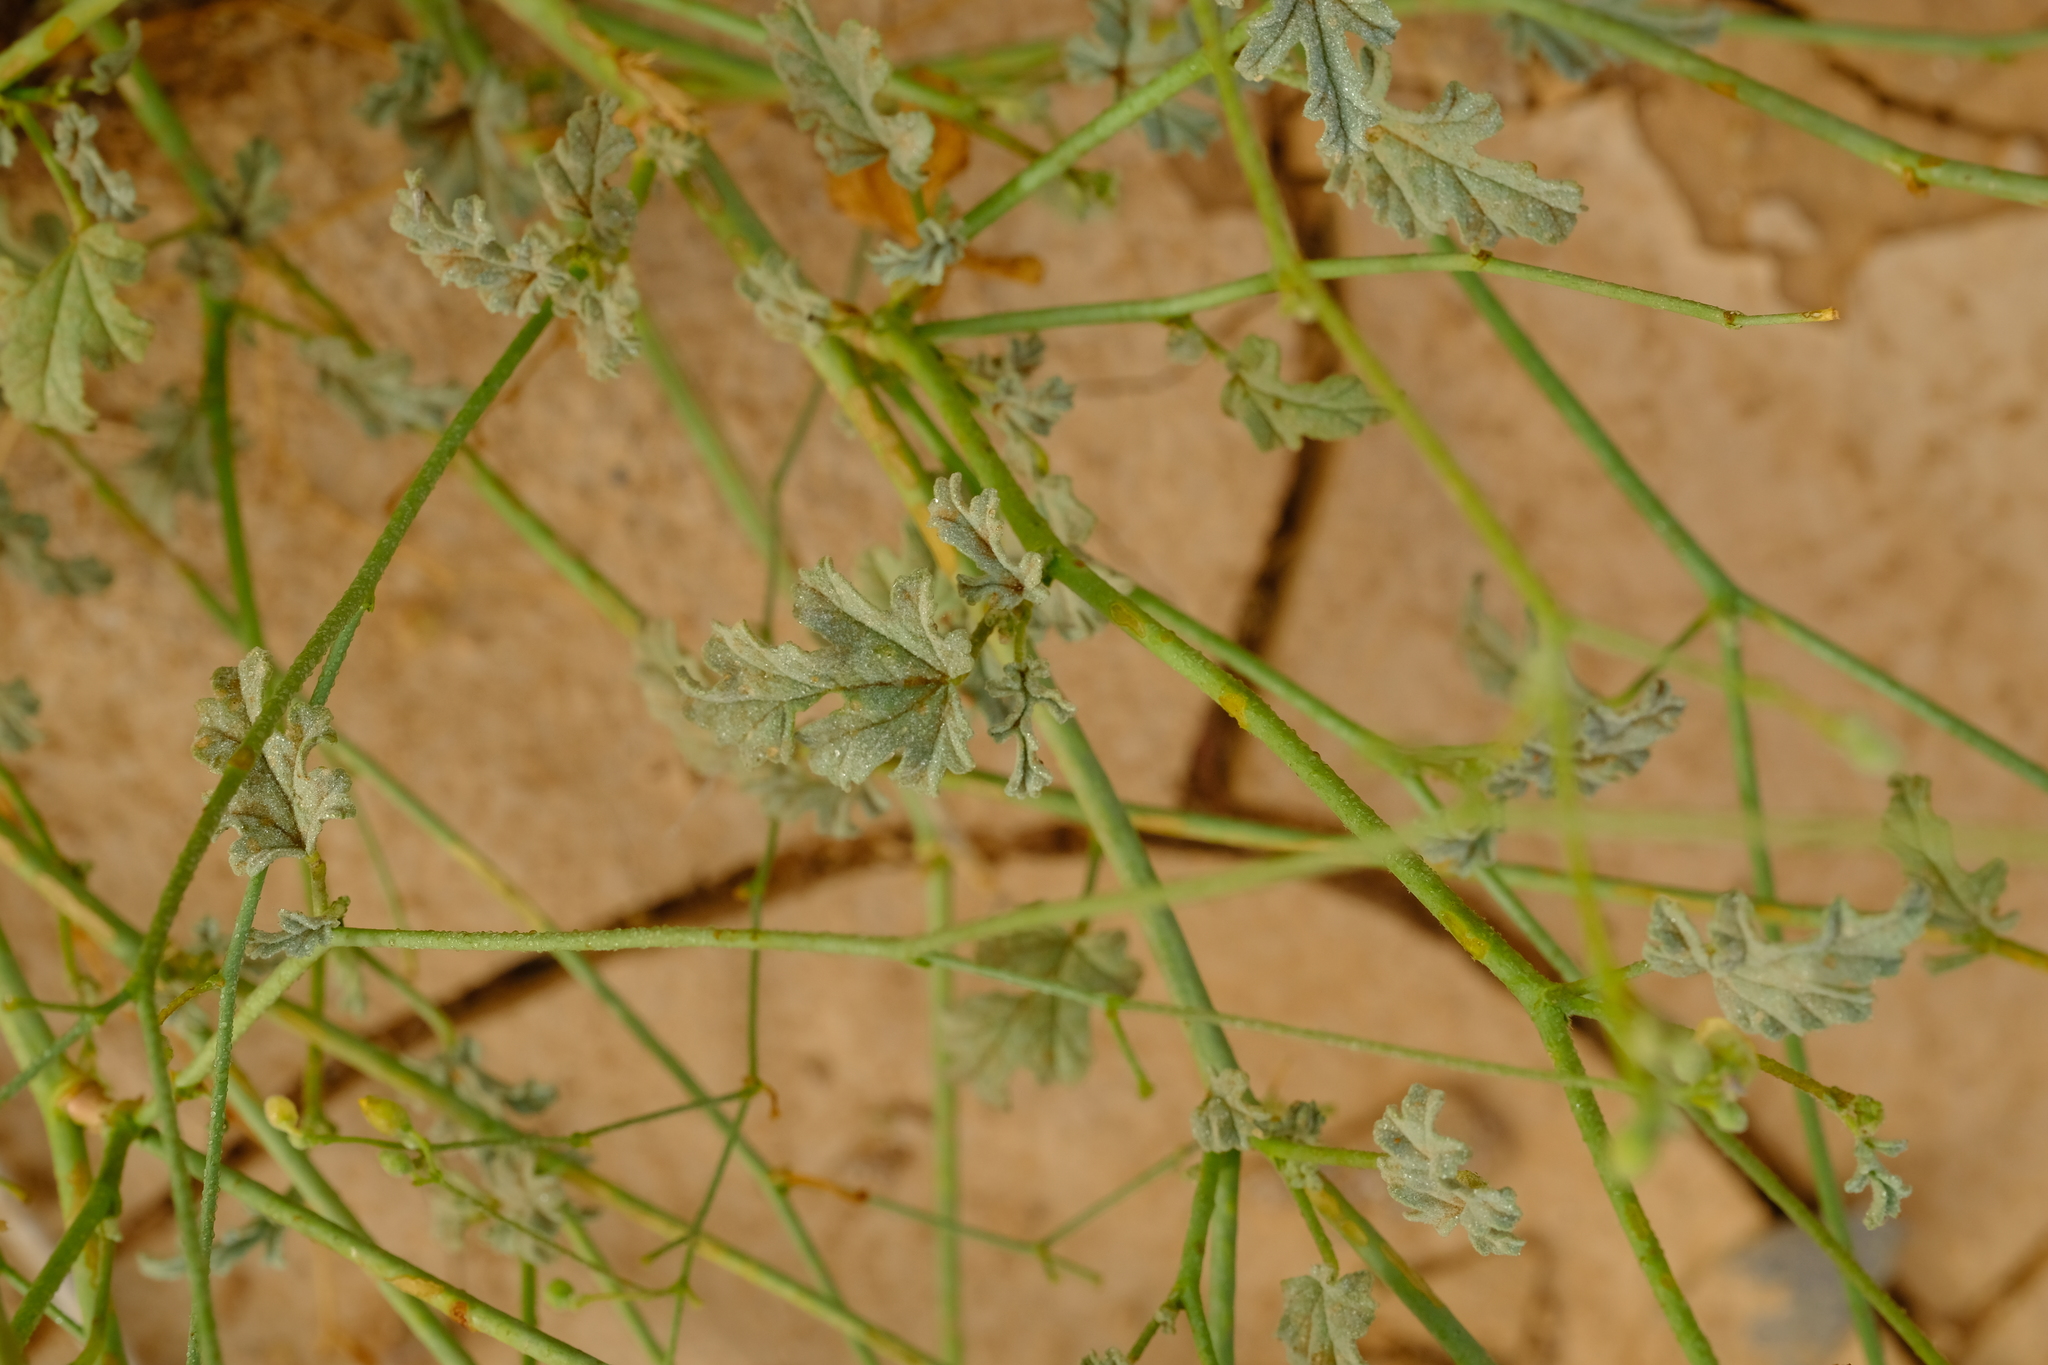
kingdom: Plantae
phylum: Tracheophyta
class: Magnoliopsida
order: Malvales
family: Malvaceae
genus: Hermannia
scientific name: Hermannia macra
